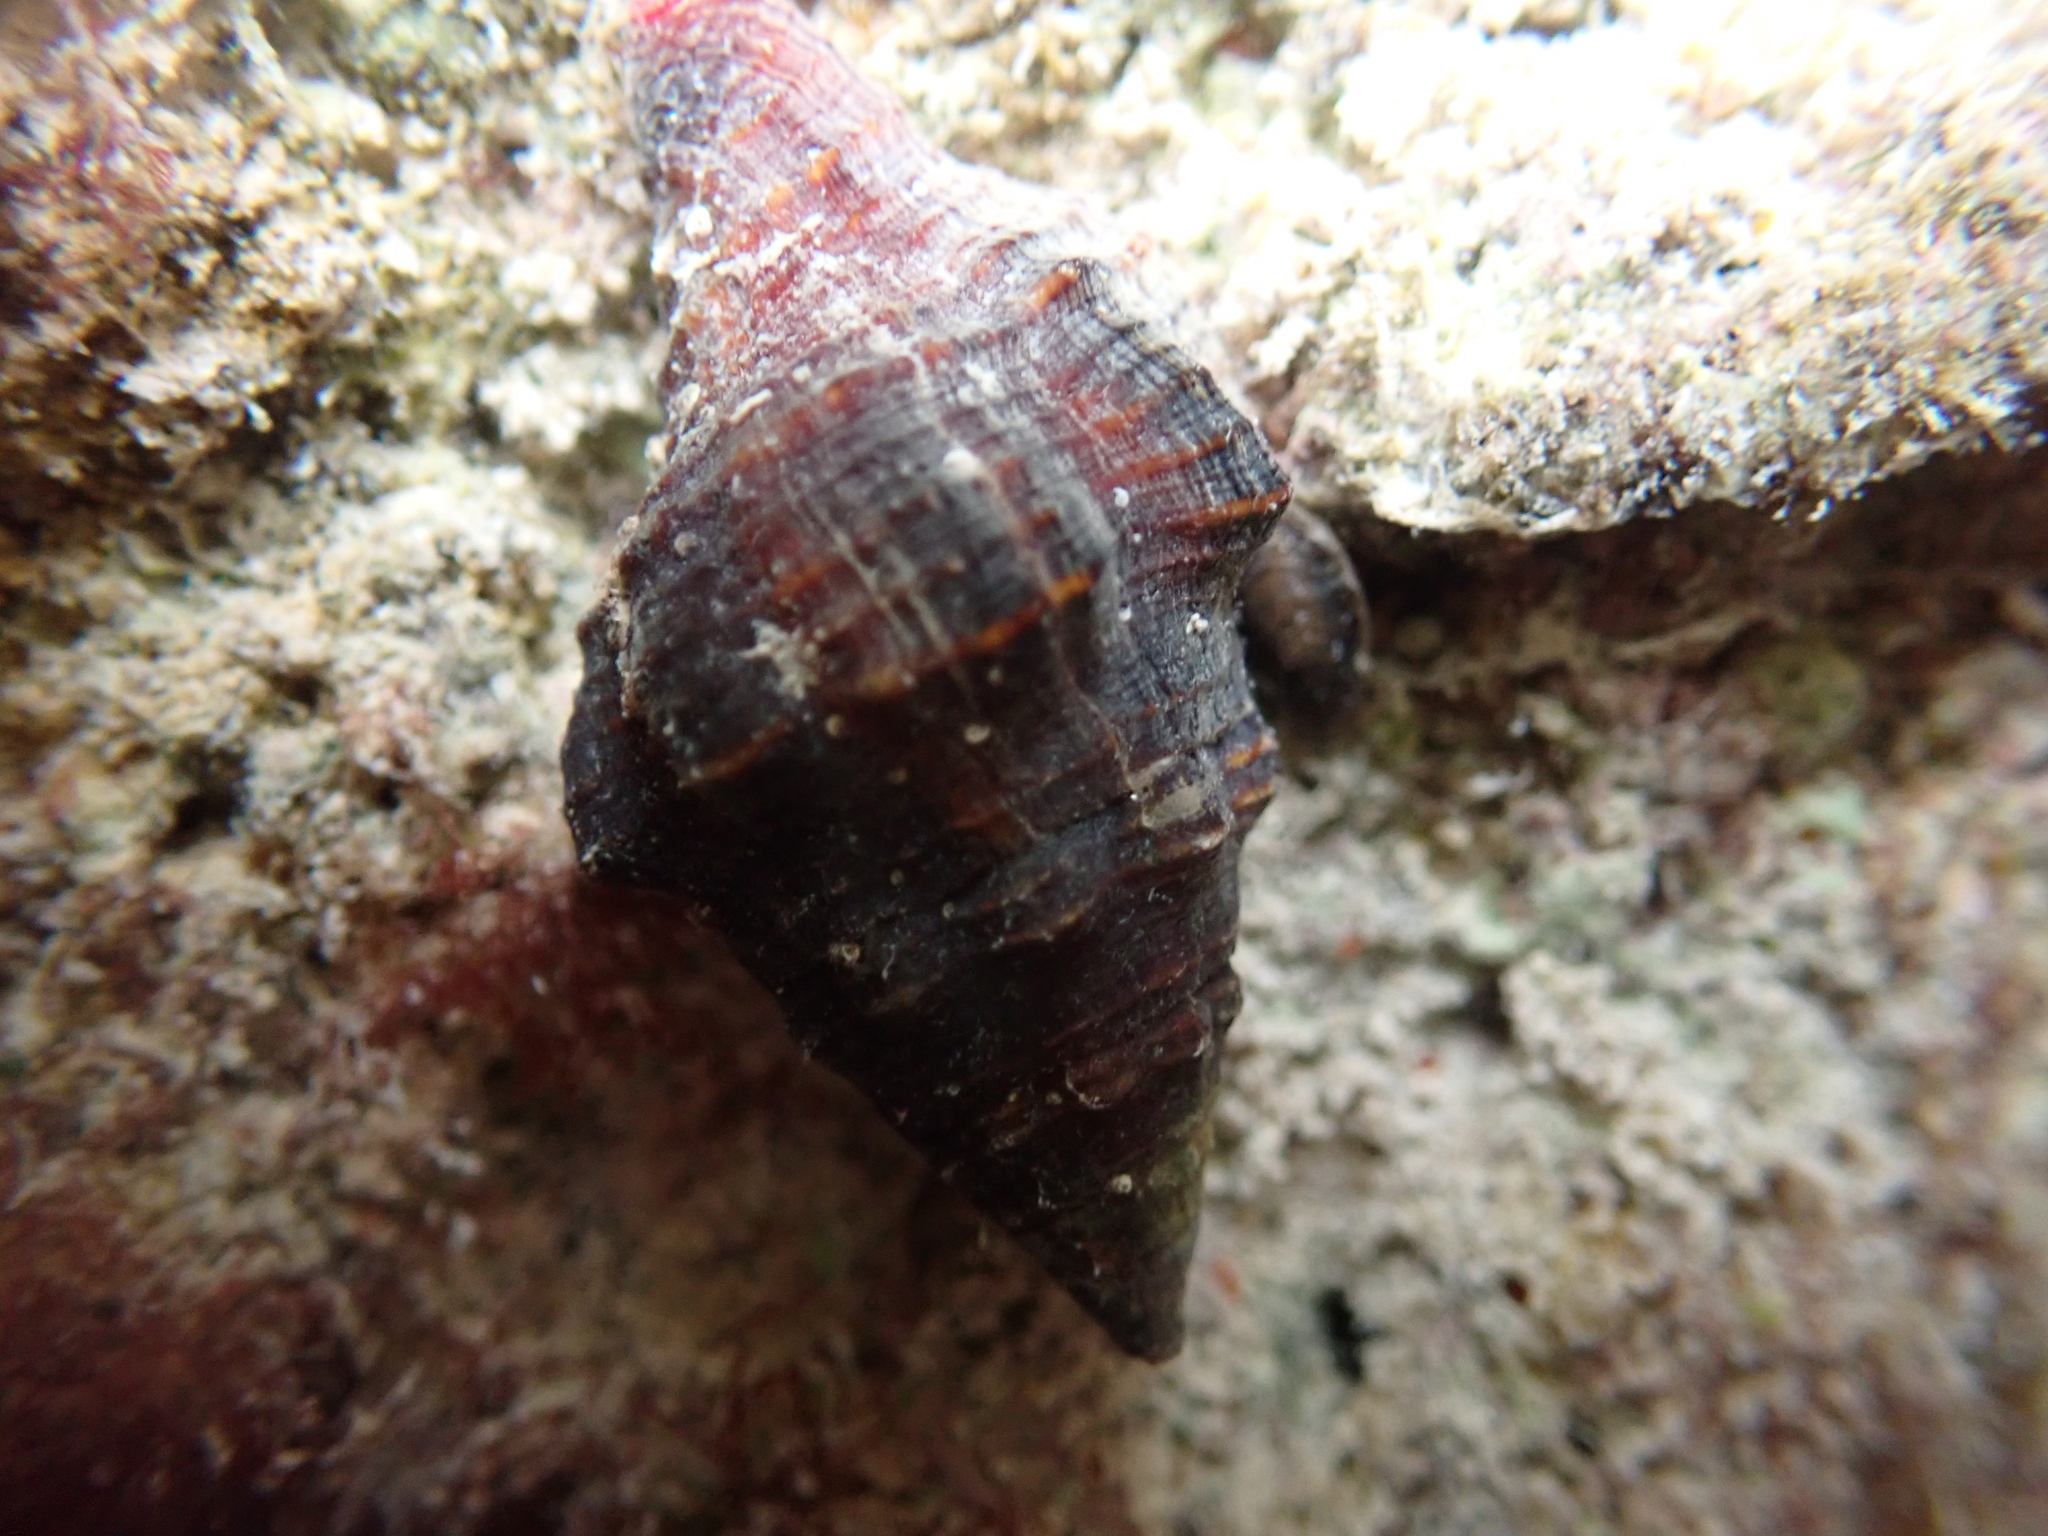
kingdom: Animalia
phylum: Mollusca
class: Gastropoda
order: Neogastropoda
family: Fasciolariidae
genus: Leucozonia
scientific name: Leucozonia nassa
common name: Chestnut latirus
